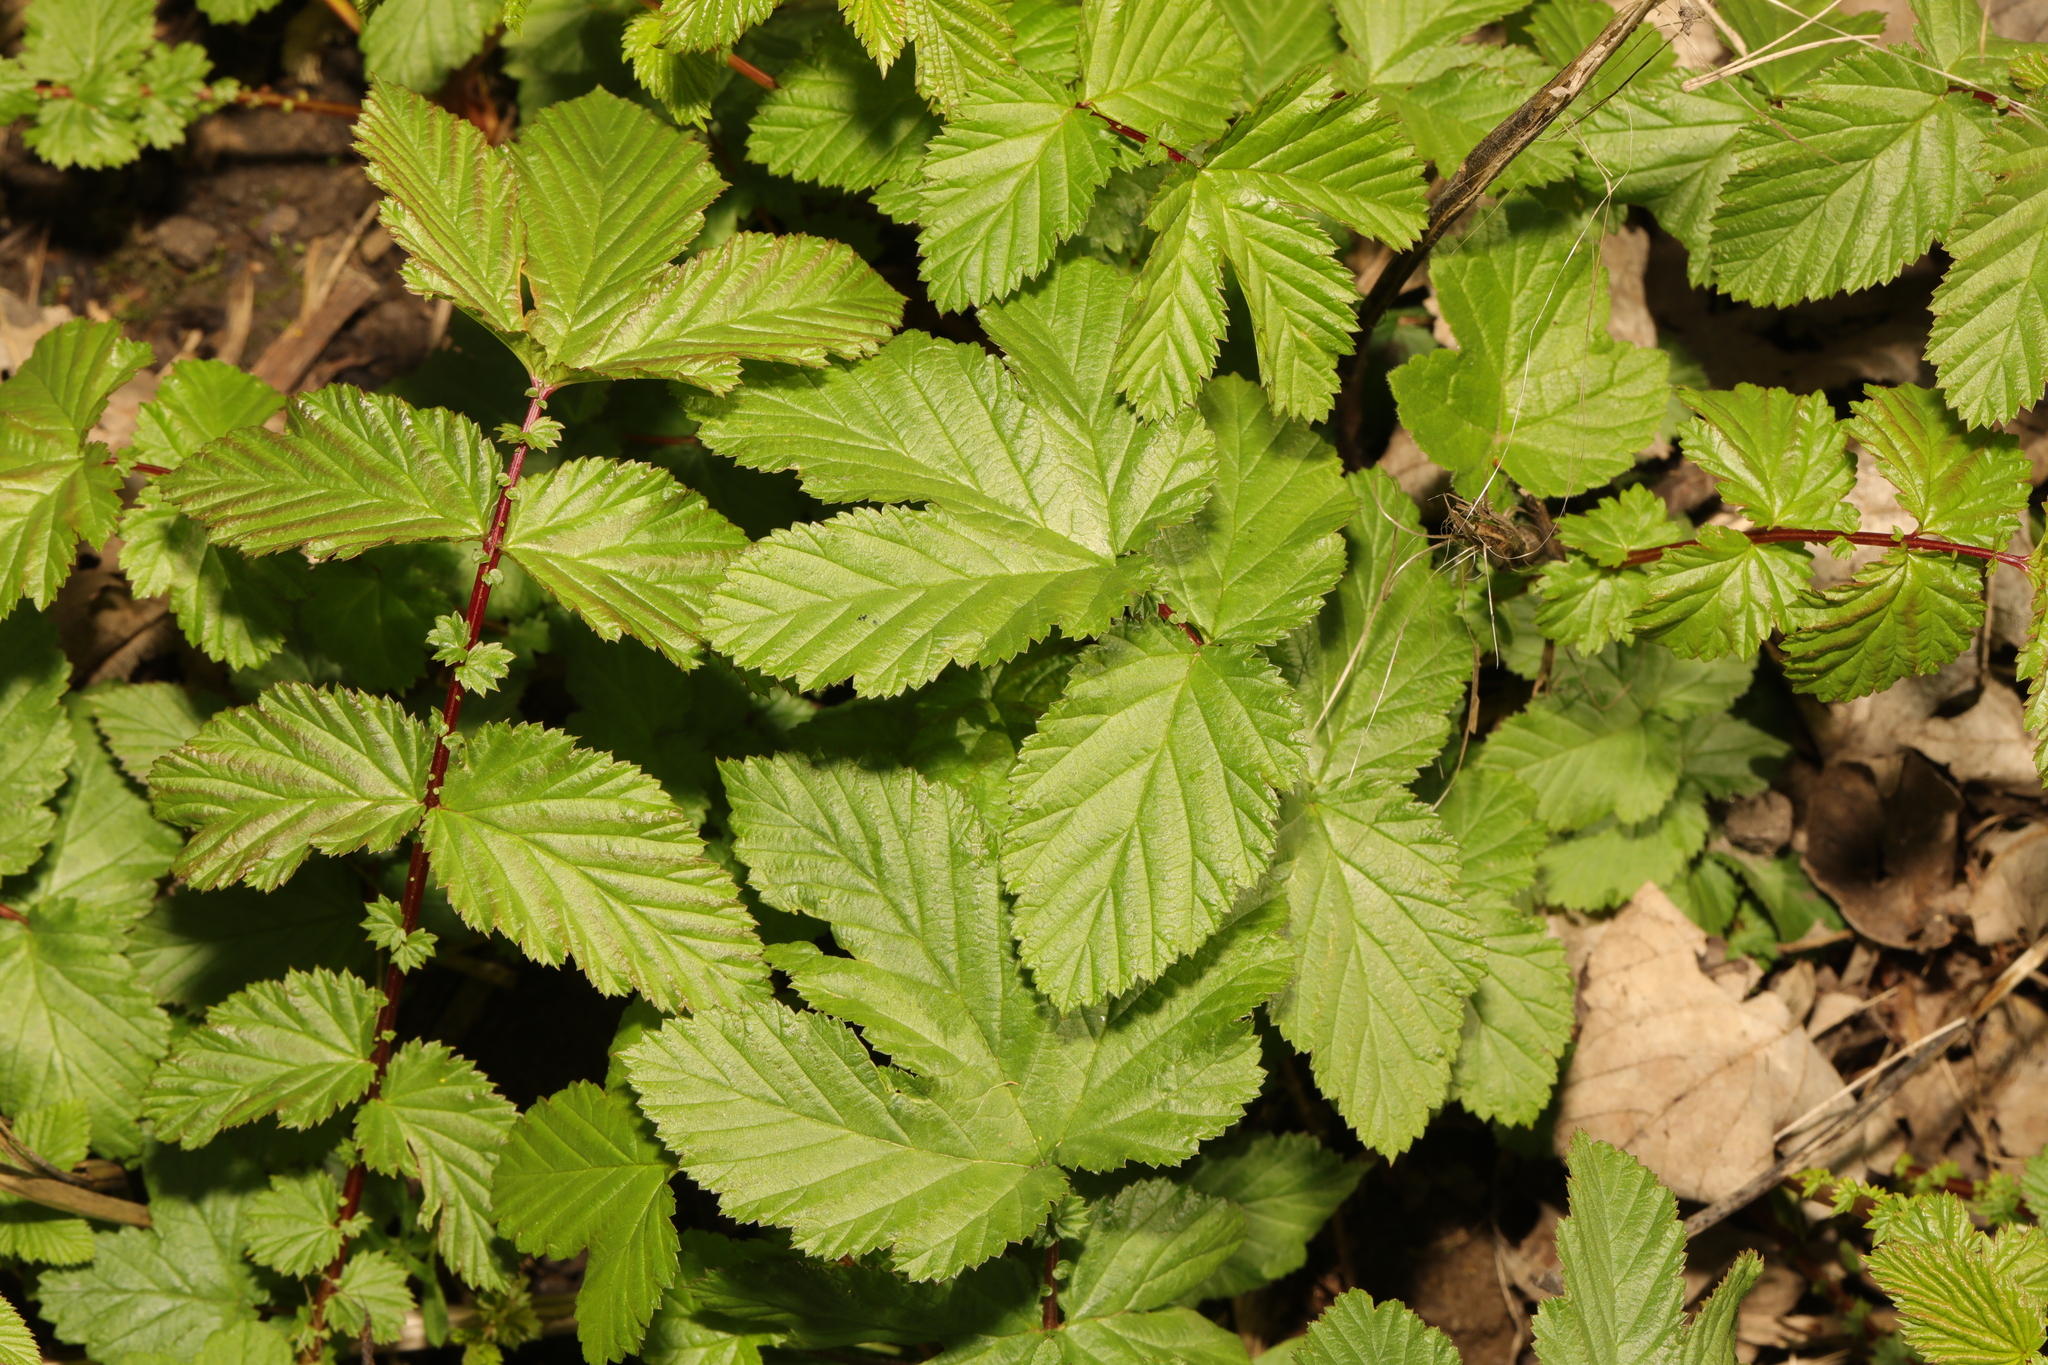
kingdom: Plantae
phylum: Tracheophyta
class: Magnoliopsida
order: Rosales
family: Rosaceae
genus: Filipendula
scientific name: Filipendula ulmaria
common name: Meadowsweet
